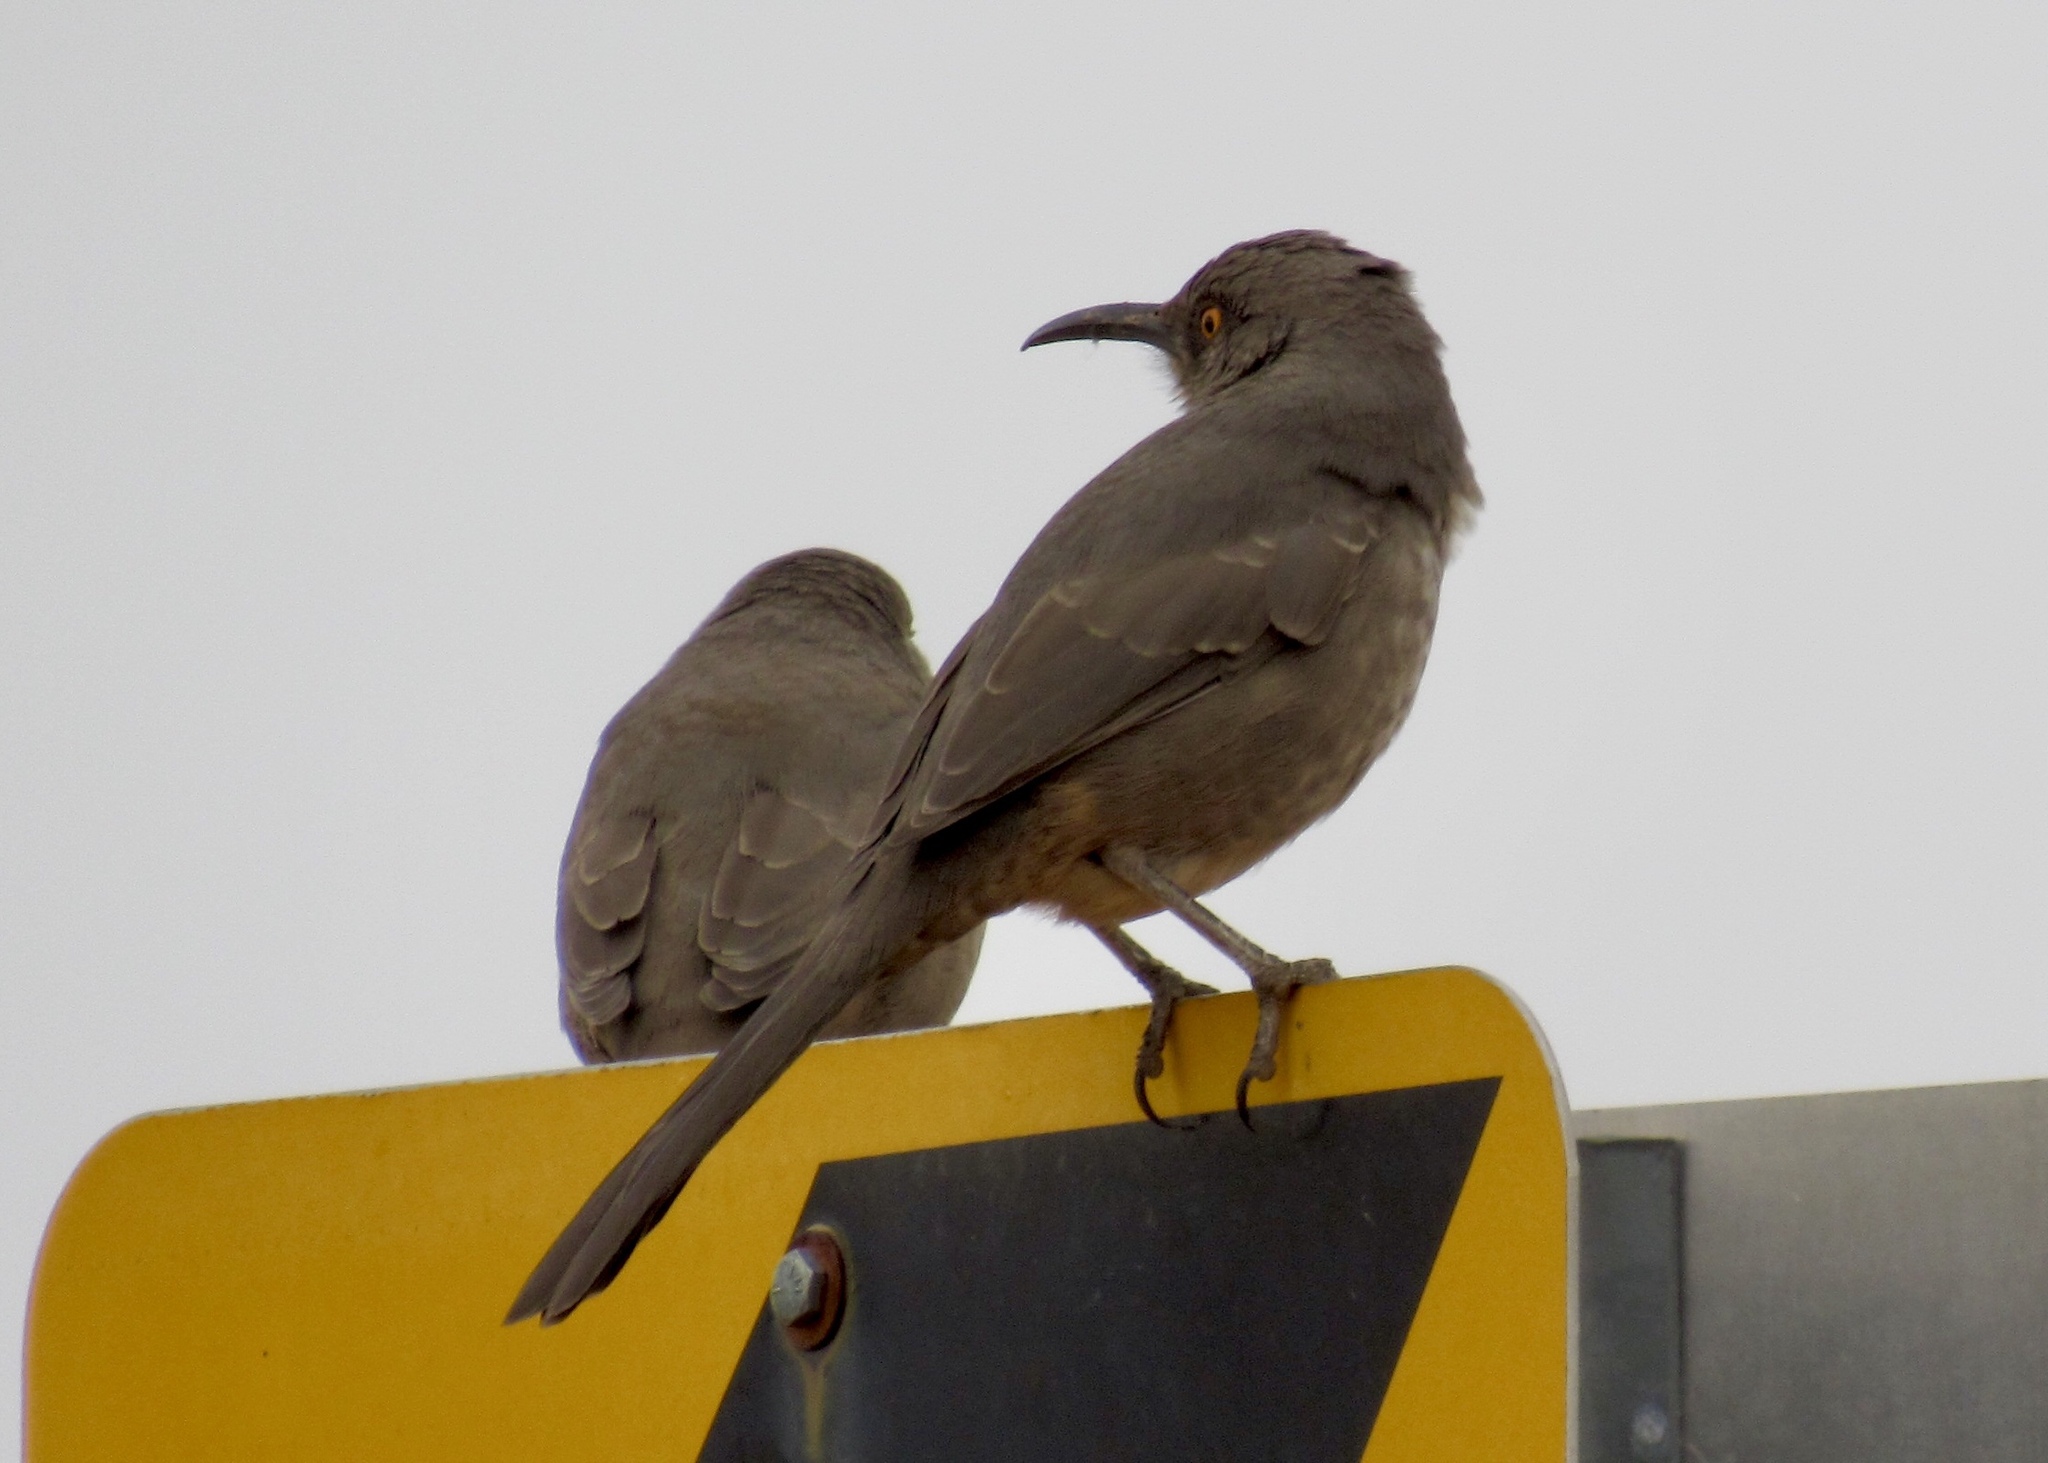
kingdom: Animalia
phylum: Chordata
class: Aves
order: Passeriformes
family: Mimidae
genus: Toxostoma
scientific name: Toxostoma curvirostre
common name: Curve-billed thrasher
